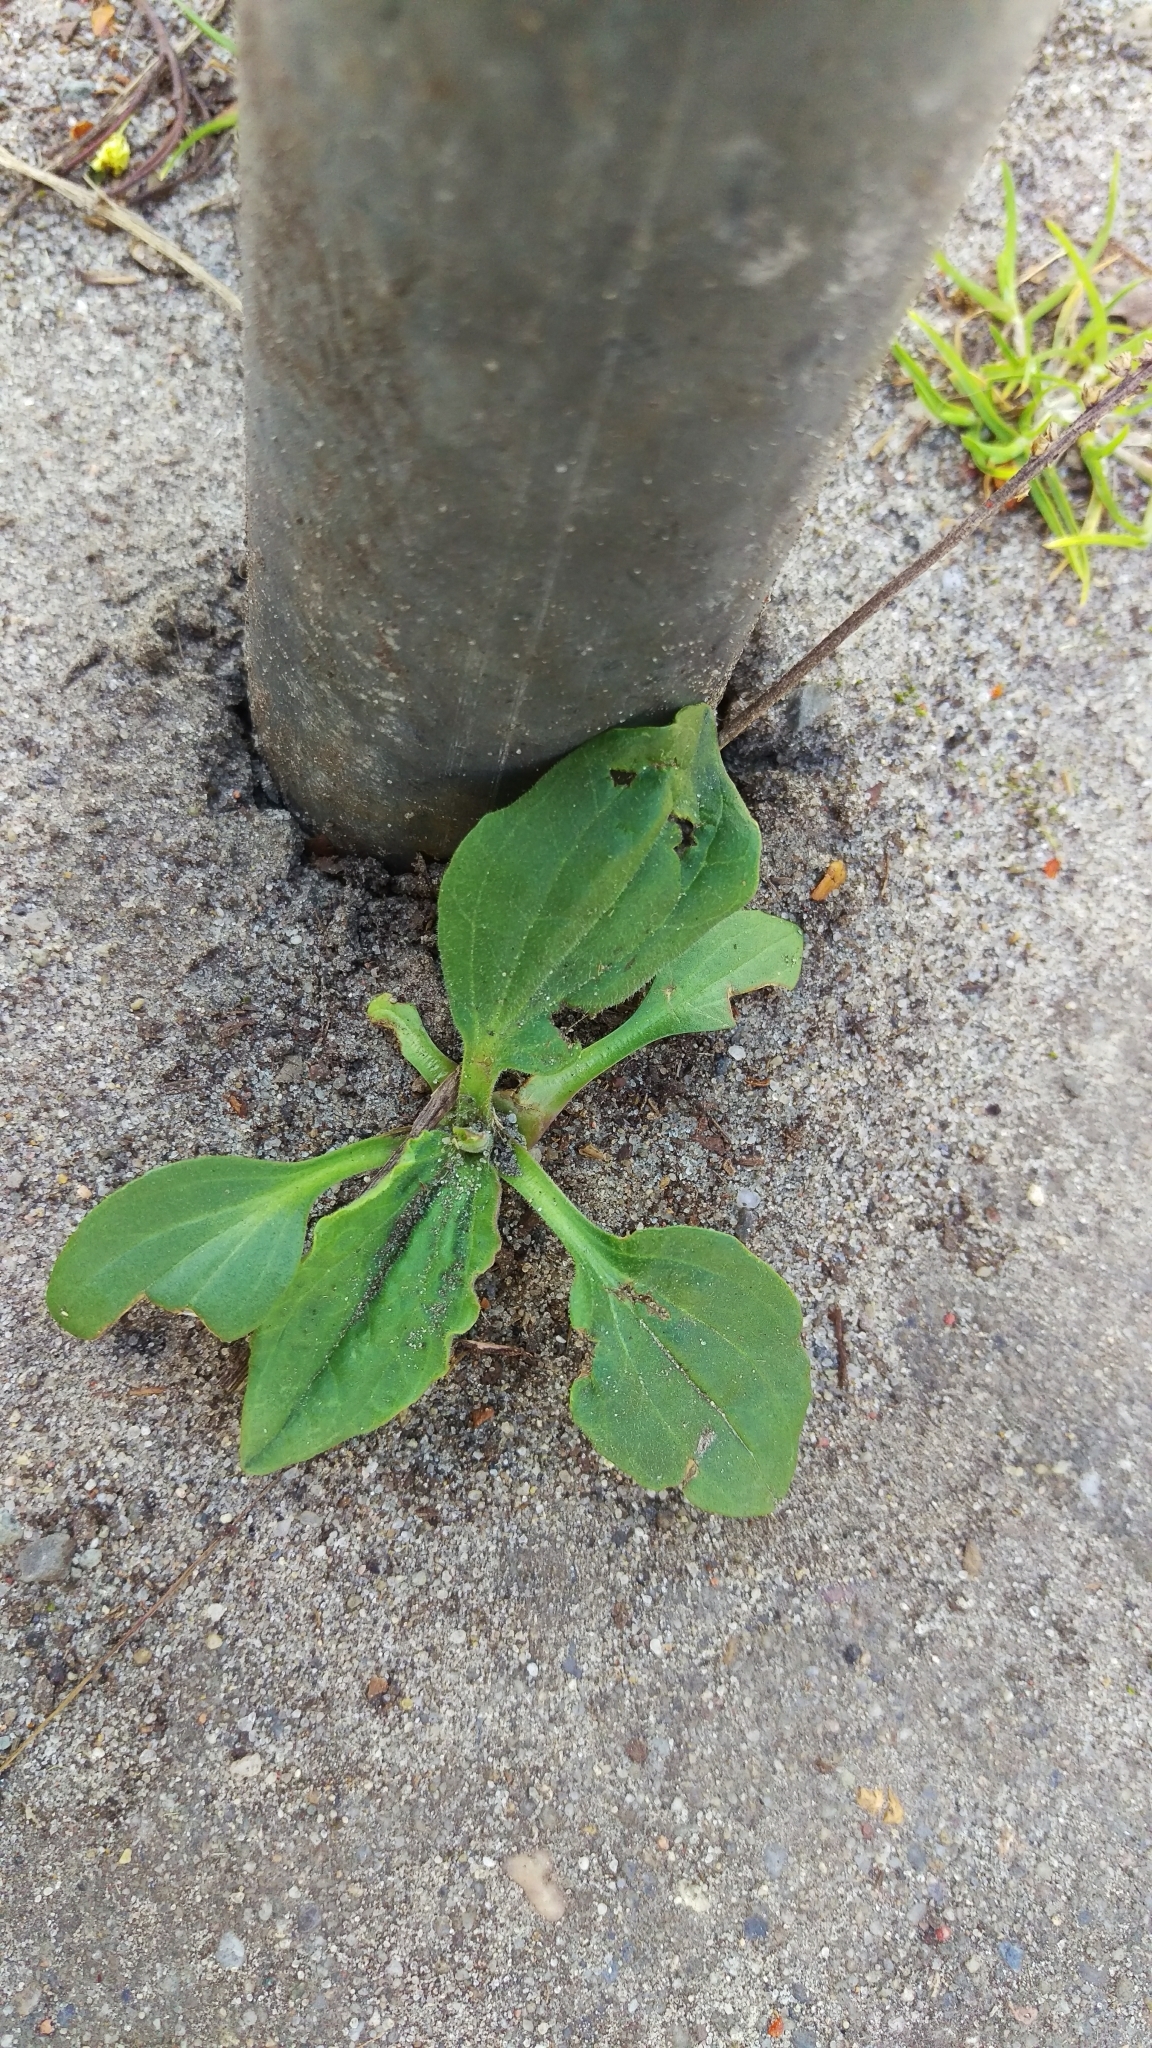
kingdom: Plantae
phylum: Tracheophyta
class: Magnoliopsida
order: Lamiales
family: Plantaginaceae
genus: Plantago
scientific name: Plantago major
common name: Common plantain
